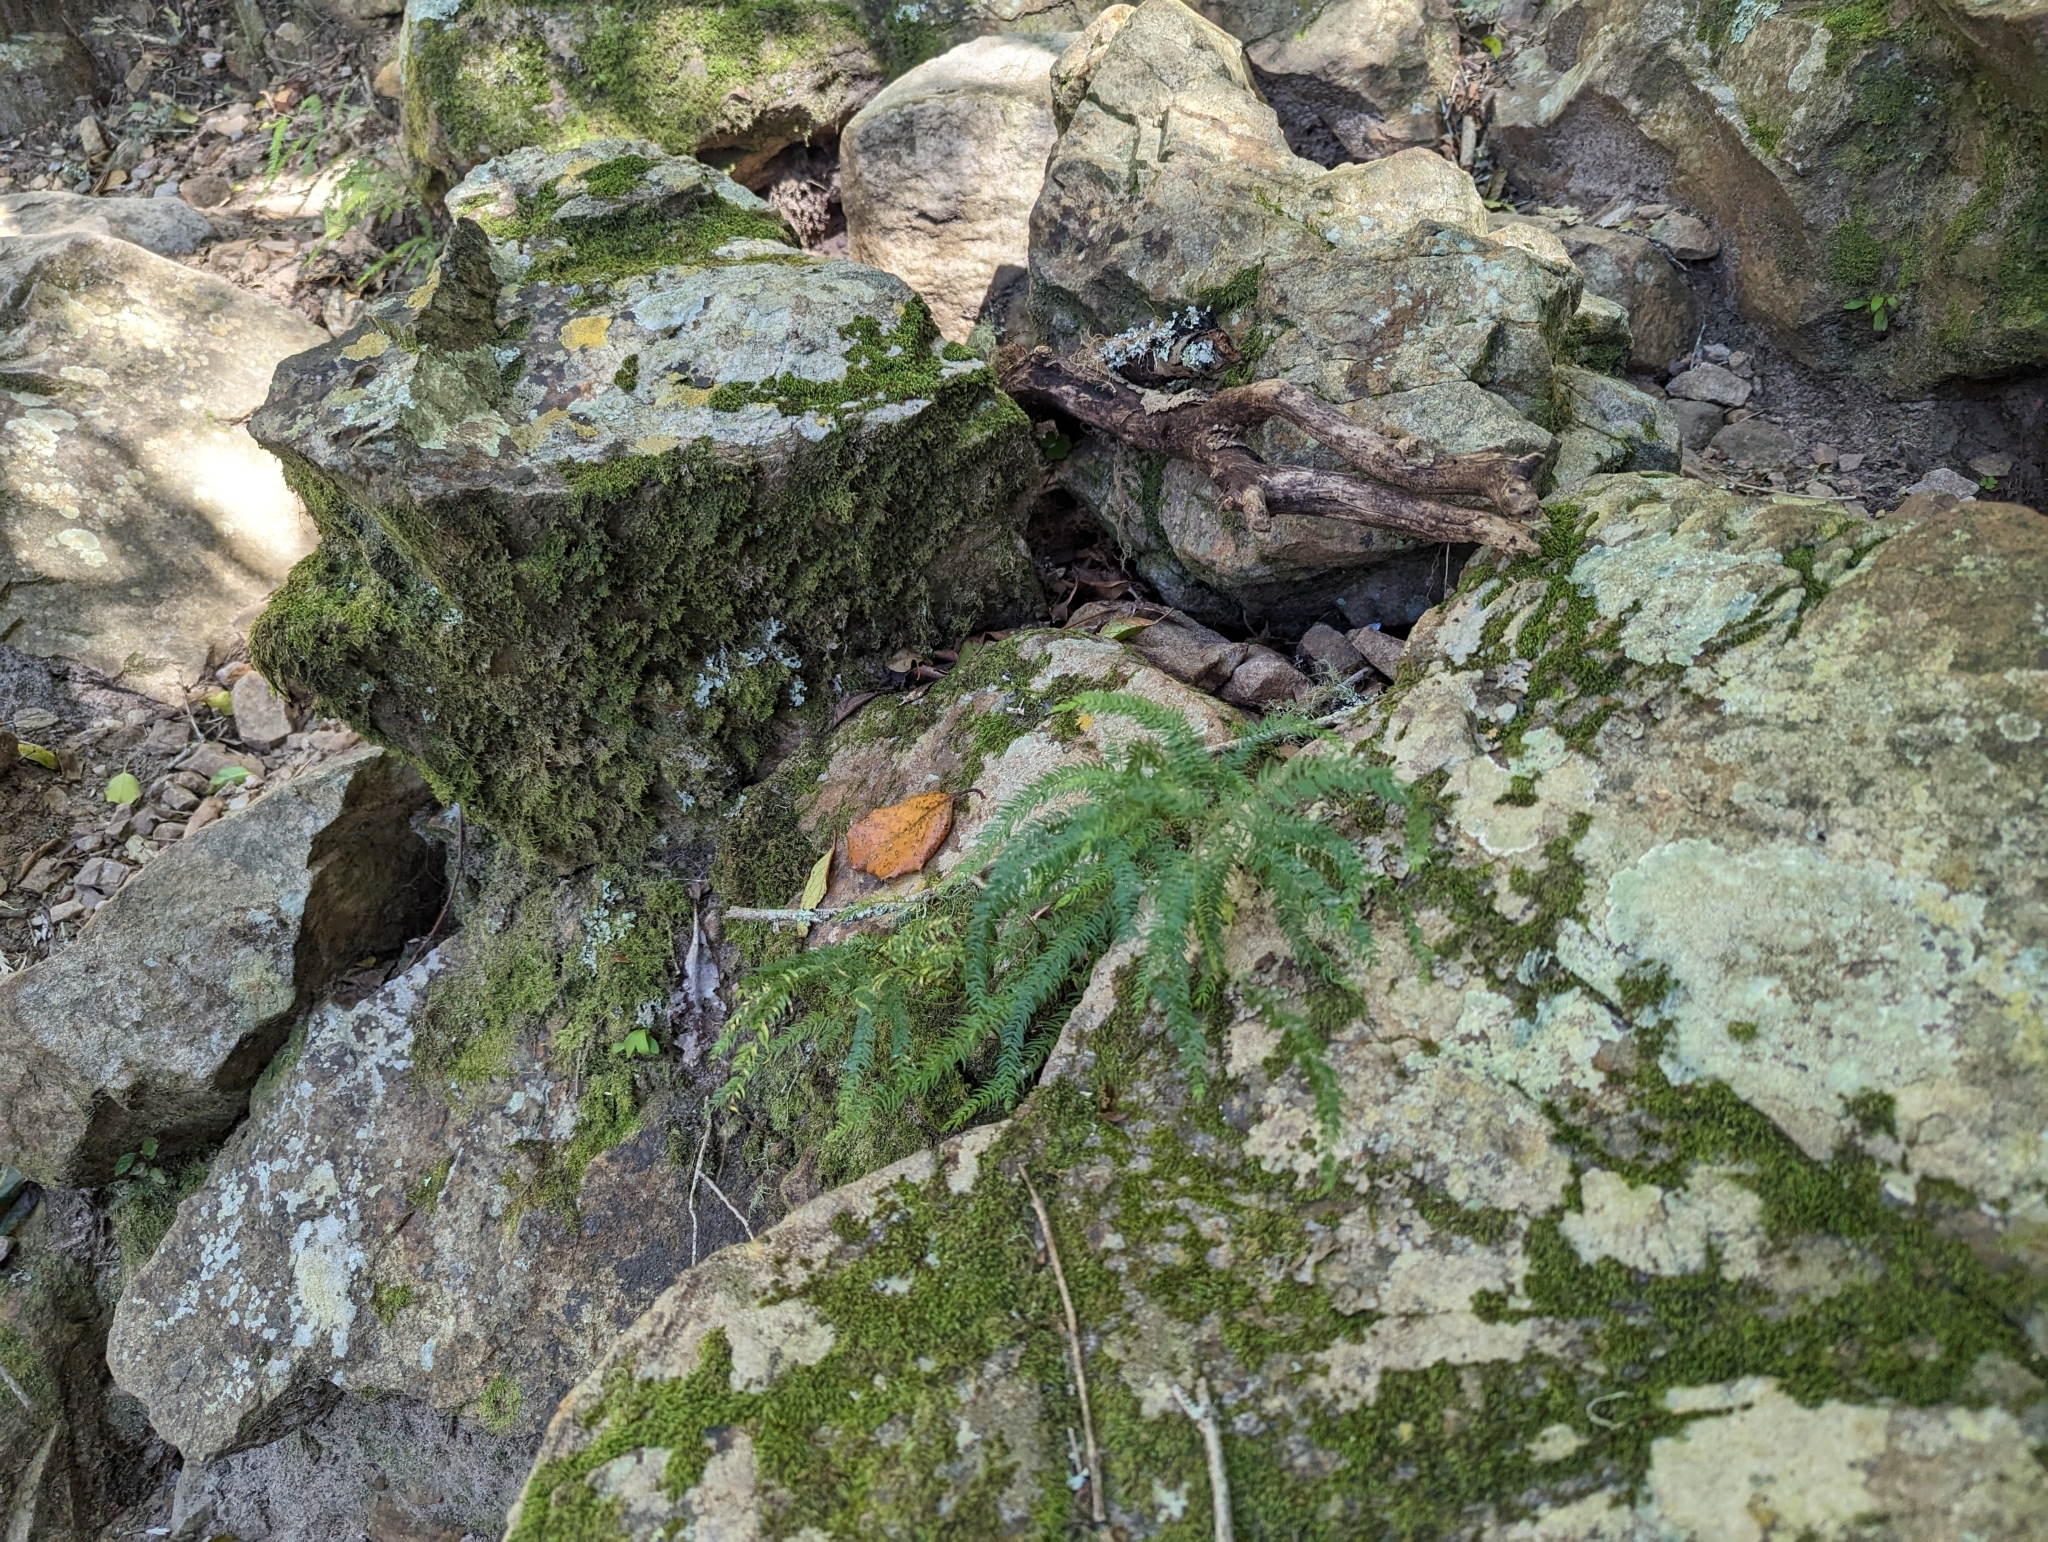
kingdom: Plantae
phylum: Tracheophyta
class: Liliopsida
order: Asparagales
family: Asparagaceae
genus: Asparagus
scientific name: Asparagus scandens
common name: Asparagus-fern
